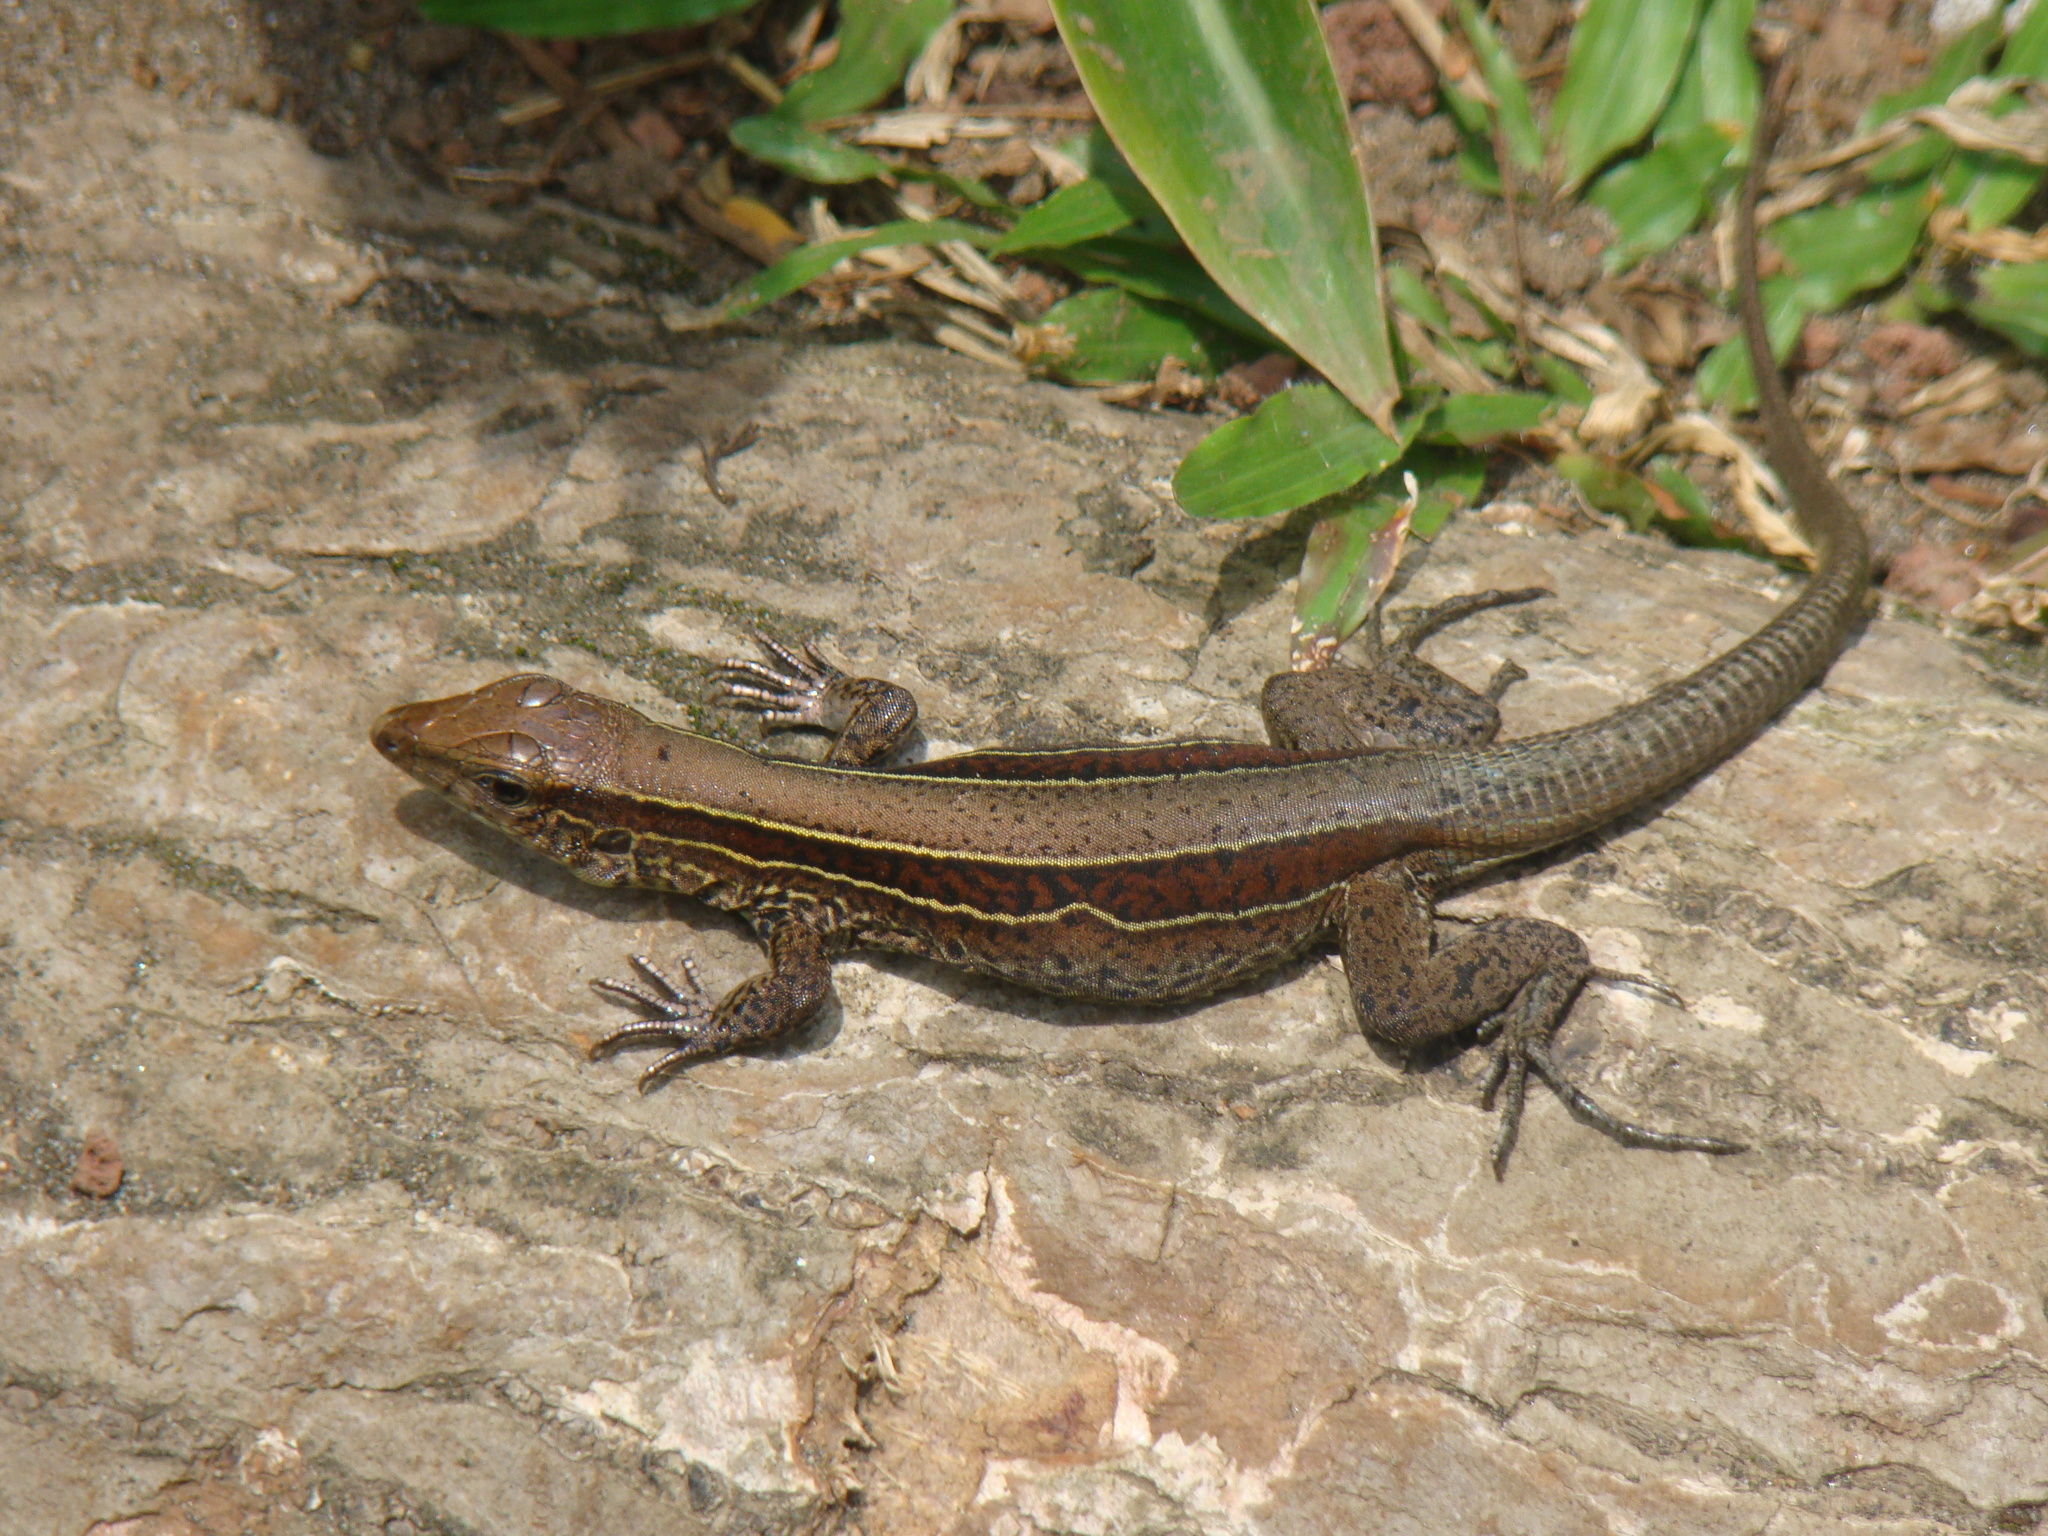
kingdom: Animalia
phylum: Chordata
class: Squamata
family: Teiidae
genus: Holcosus
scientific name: Holcosus quadrilineatus
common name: Four-lined ameiva
